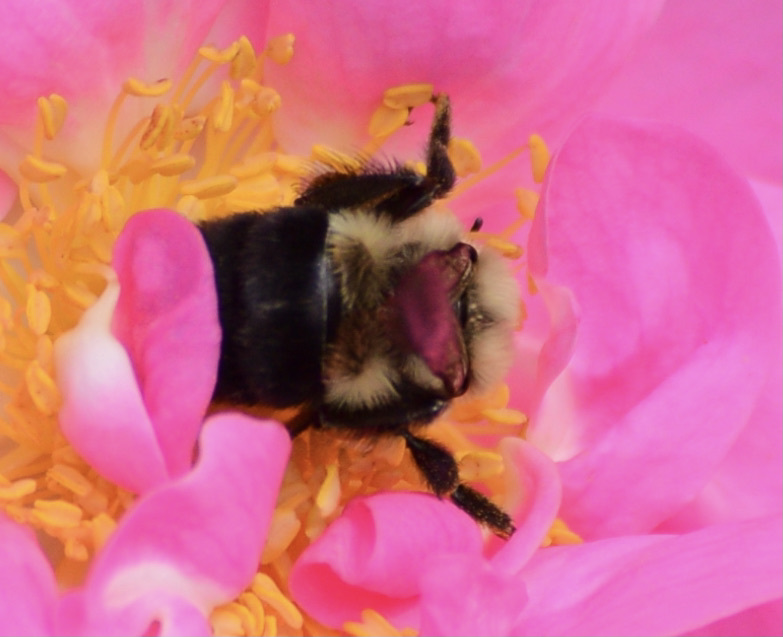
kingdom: Animalia
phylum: Arthropoda
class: Insecta
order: Hymenoptera
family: Apidae
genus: Bombus
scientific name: Bombus impatiens
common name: Common eastern bumble bee
